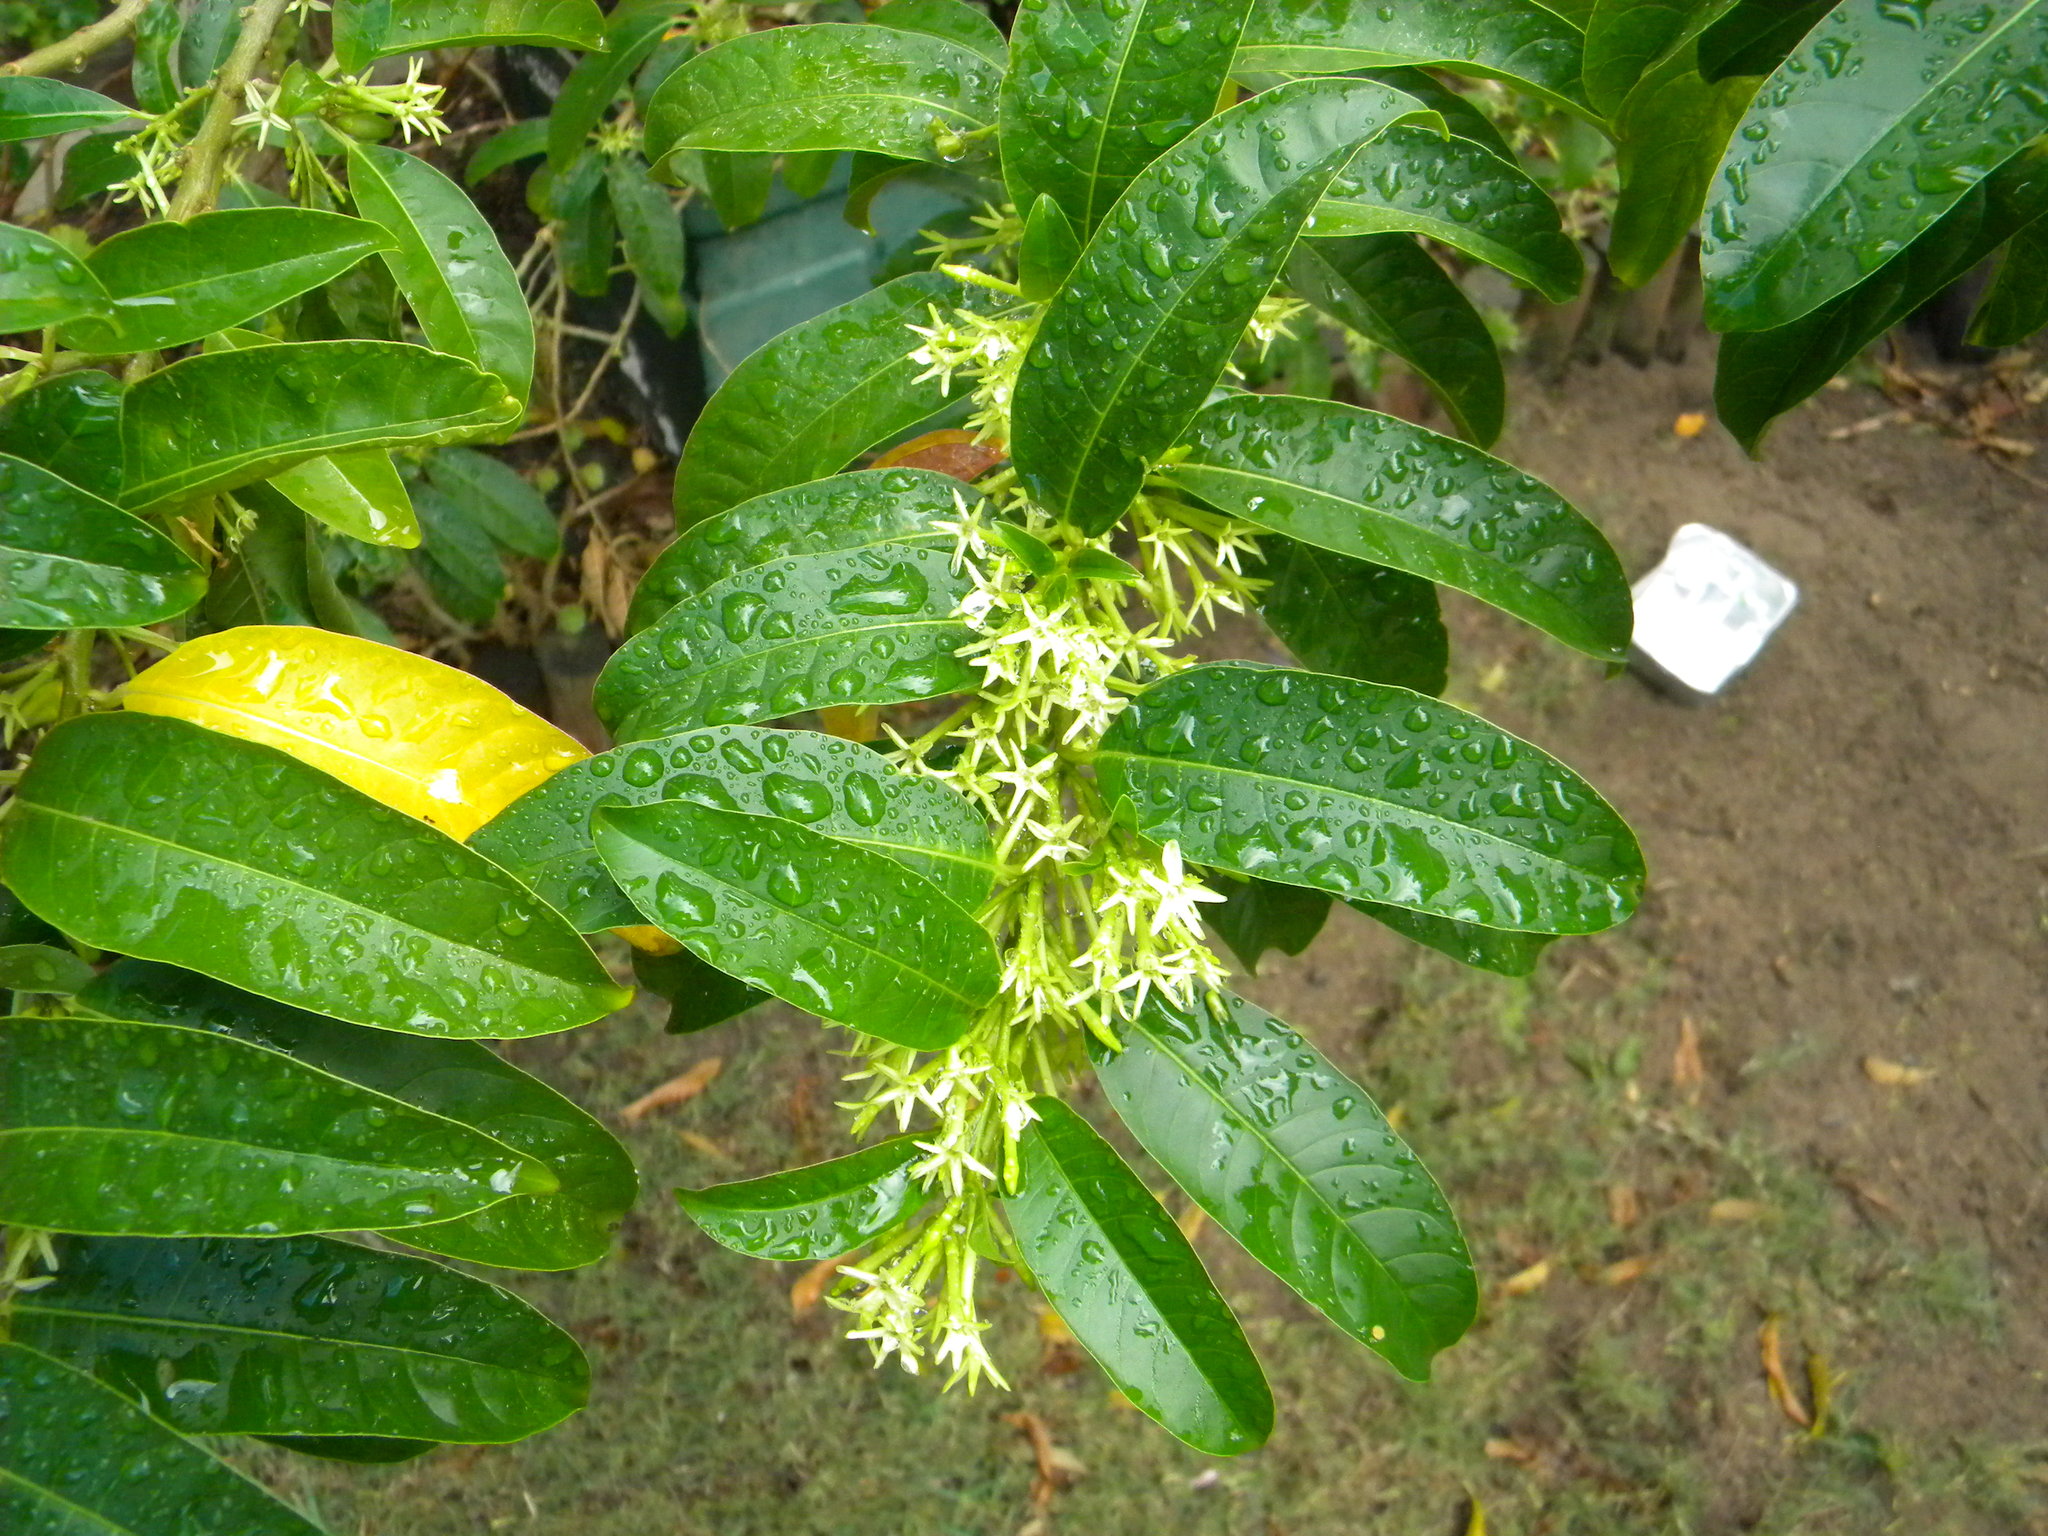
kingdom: Plantae
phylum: Tracheophyta
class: Magnoliopsida
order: Solanales
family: Solanaceae
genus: Cestrum
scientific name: Cestrum laevigatum
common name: Inkberry
